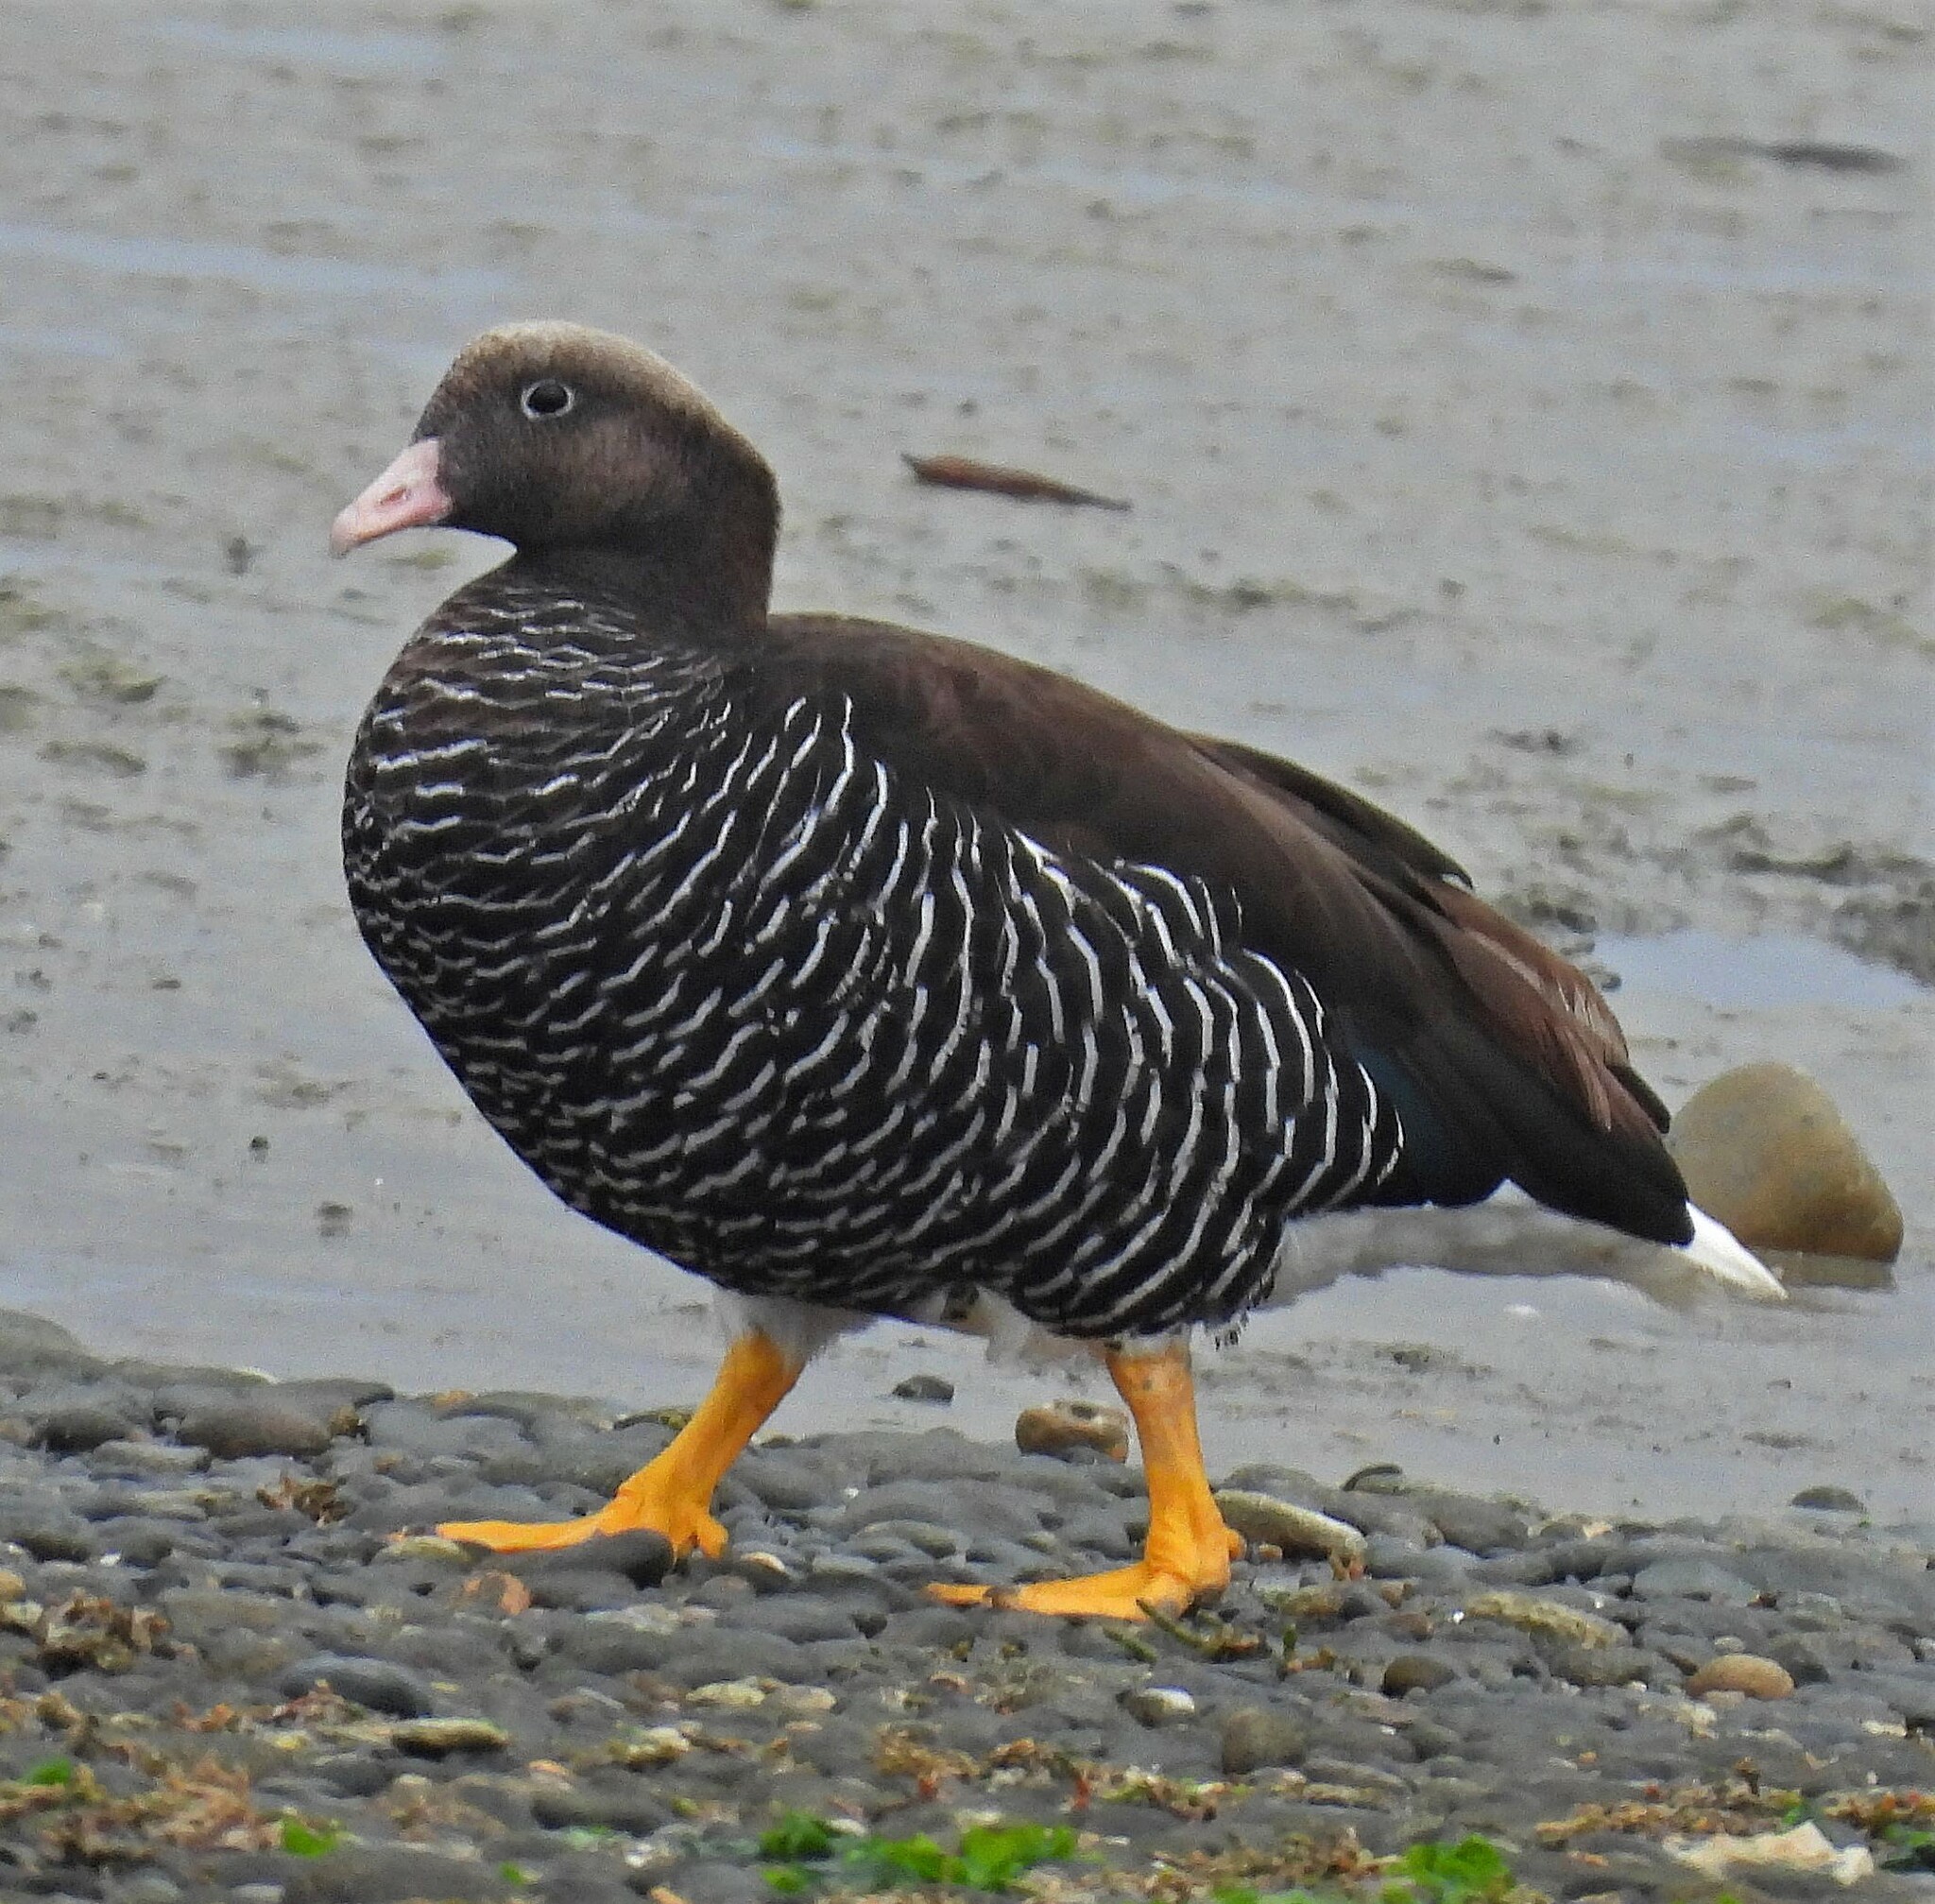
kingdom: Animalia
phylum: Chordata
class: Aves
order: Anseriformes
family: Anatidae
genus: Chloephaga
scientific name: Chloephaga hybrida
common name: Kelp goose
